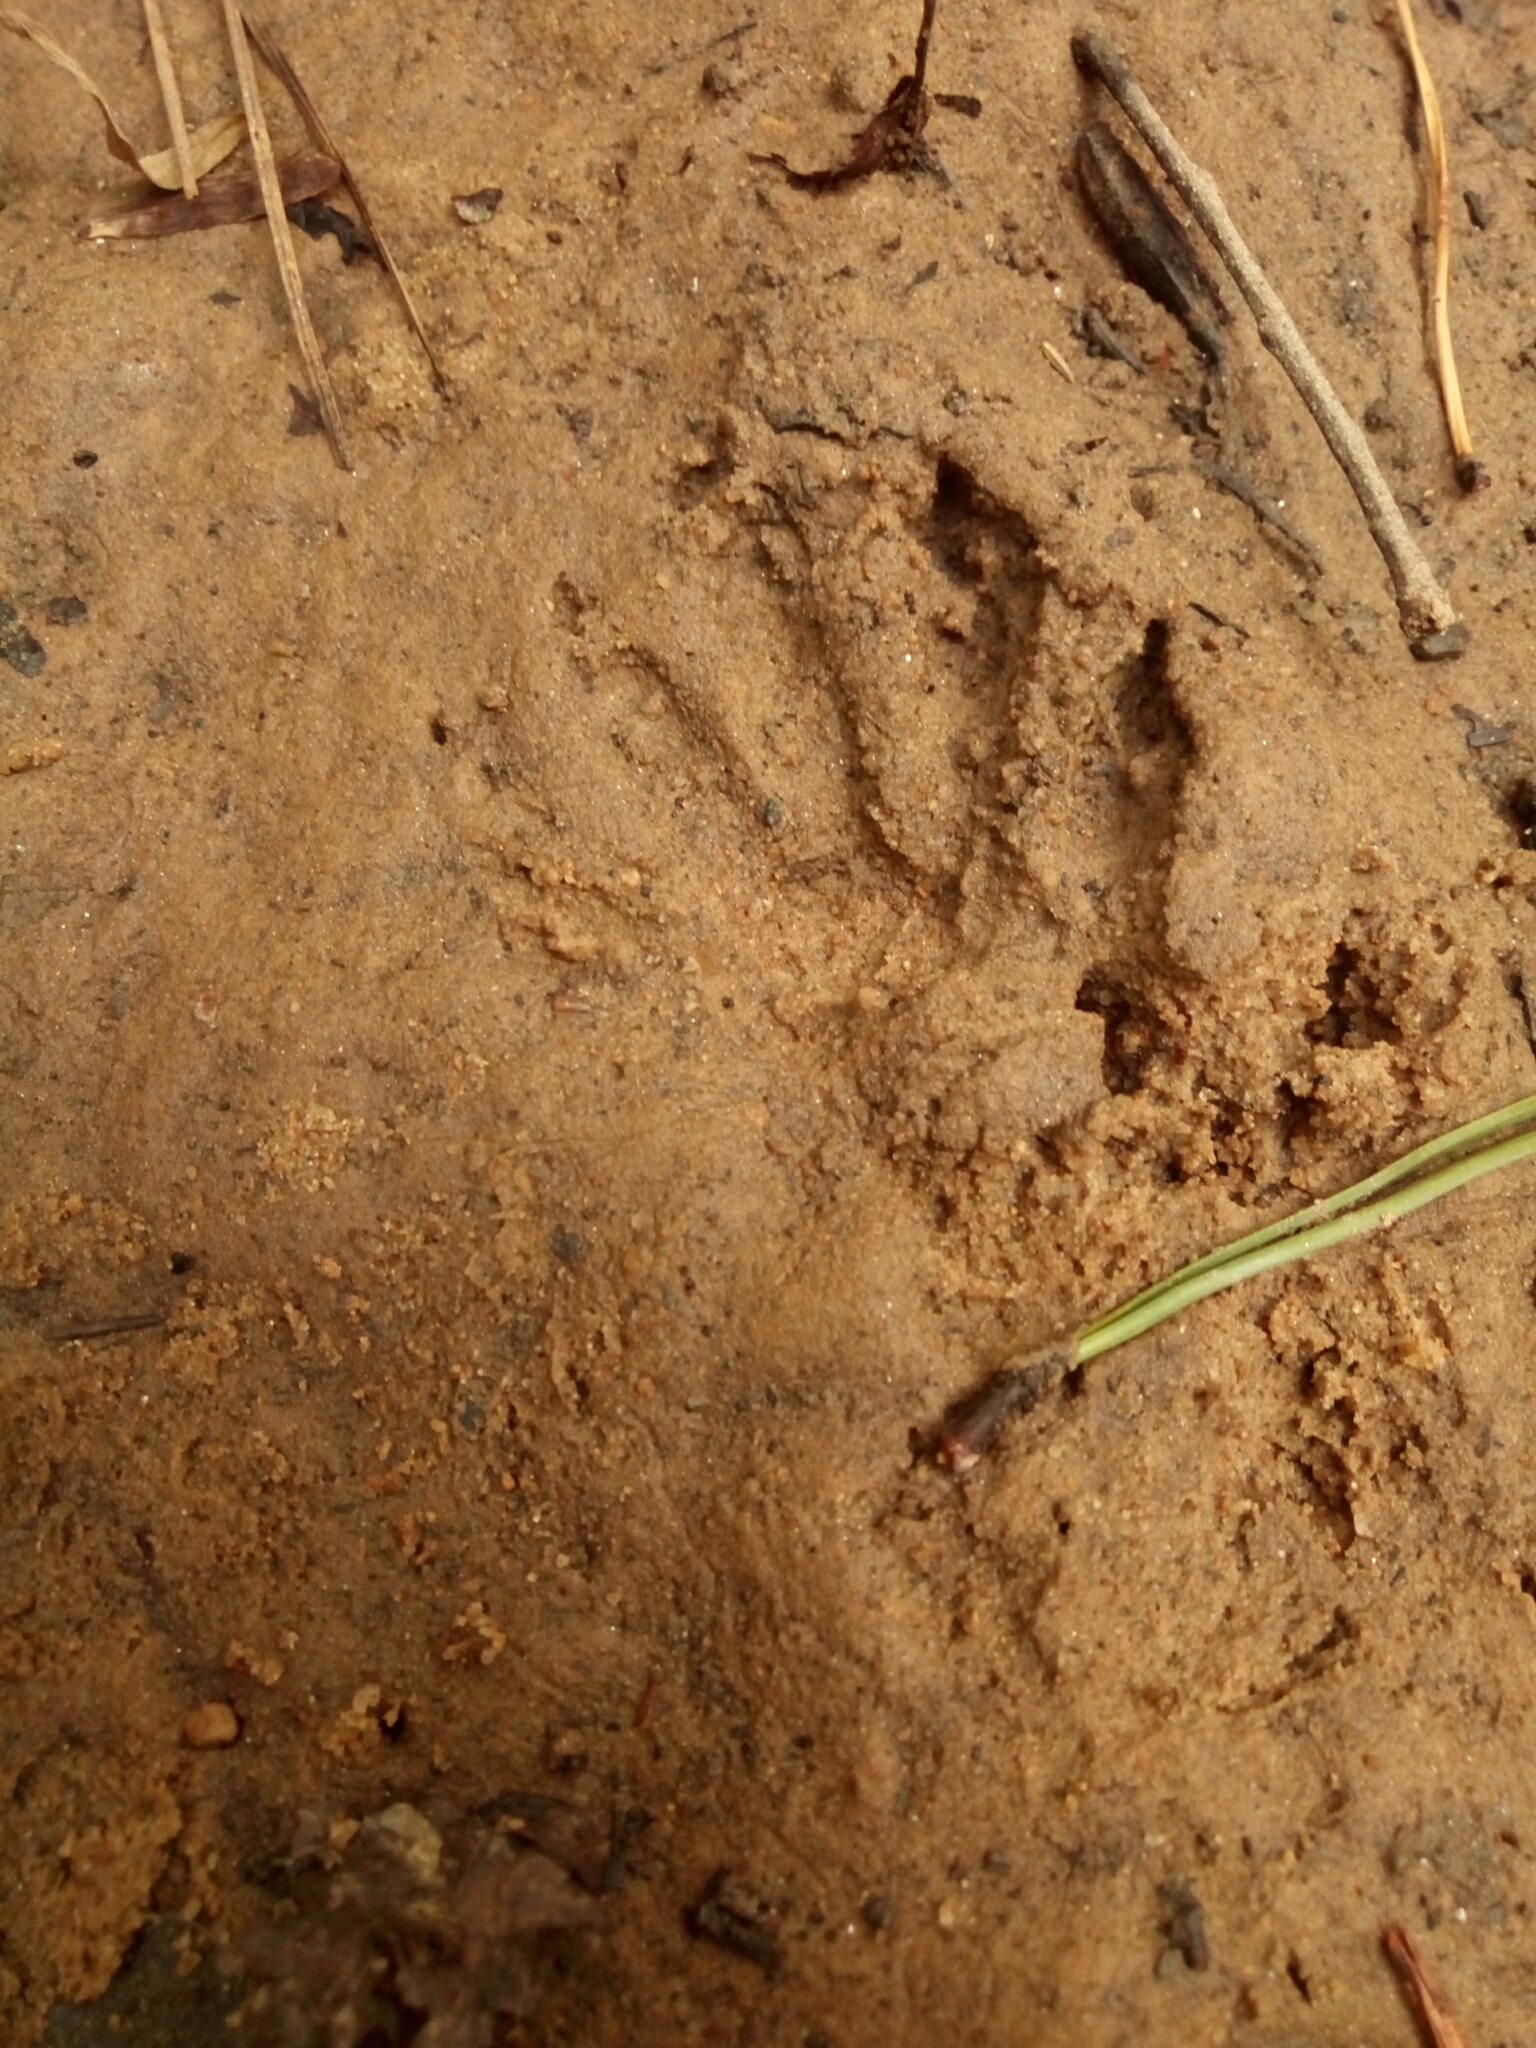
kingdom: Animalia
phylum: Chordata
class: Mammalia
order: Carnivora
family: Procyonidae
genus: Procyon
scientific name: Procyon lotor
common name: Raccoon
